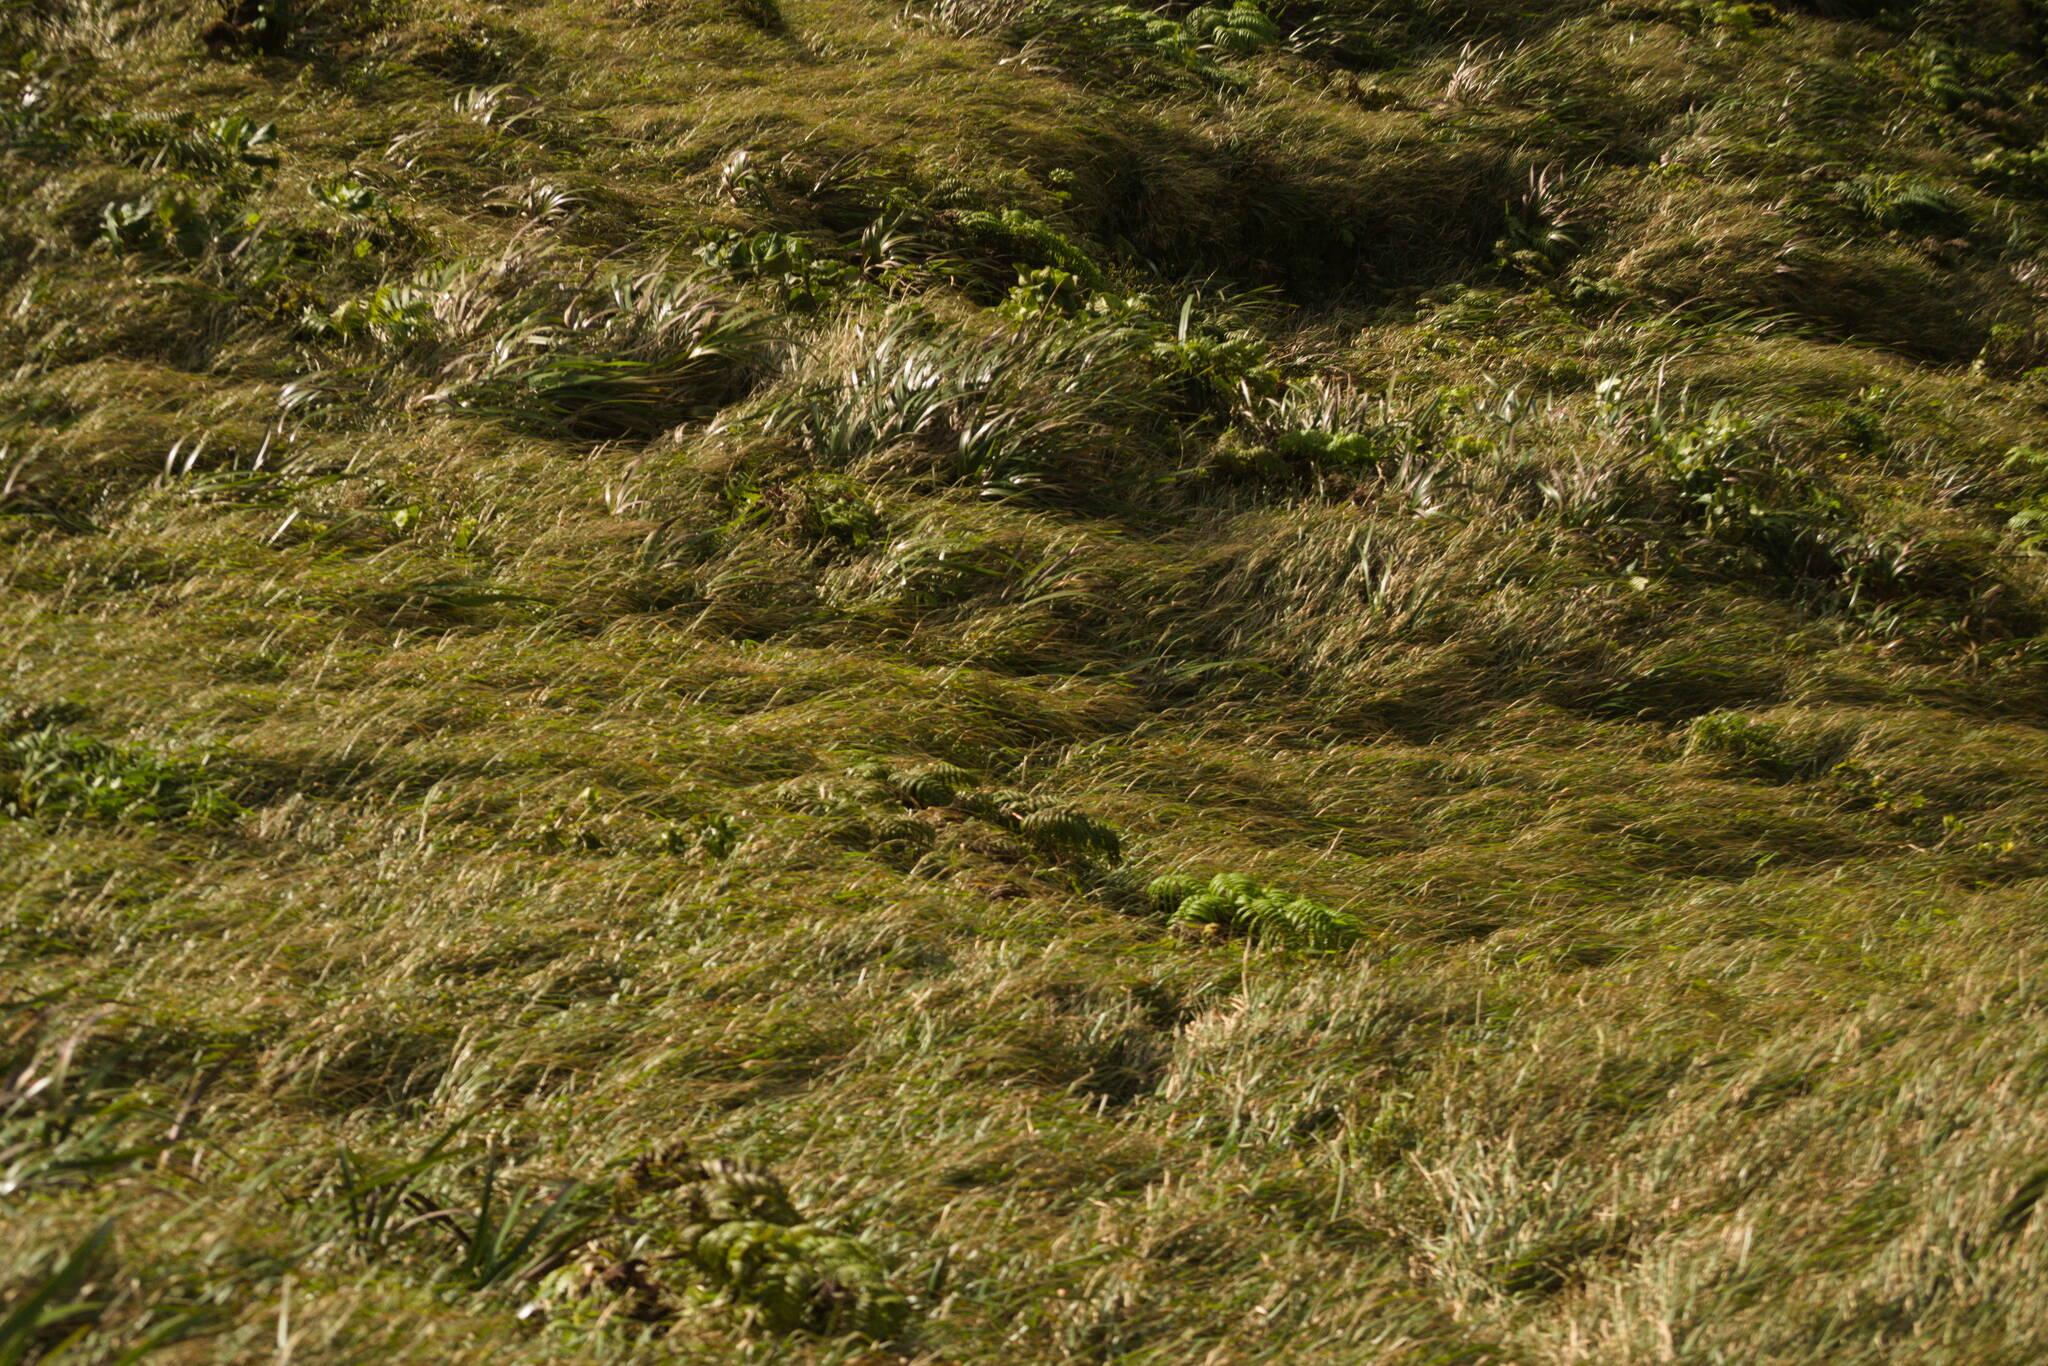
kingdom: Plantae
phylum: Tracheophyta
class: Liliopsida
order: Poales
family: Poaceae
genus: Axonopus
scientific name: Axonopus fissifolius
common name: Common carpetgrass
